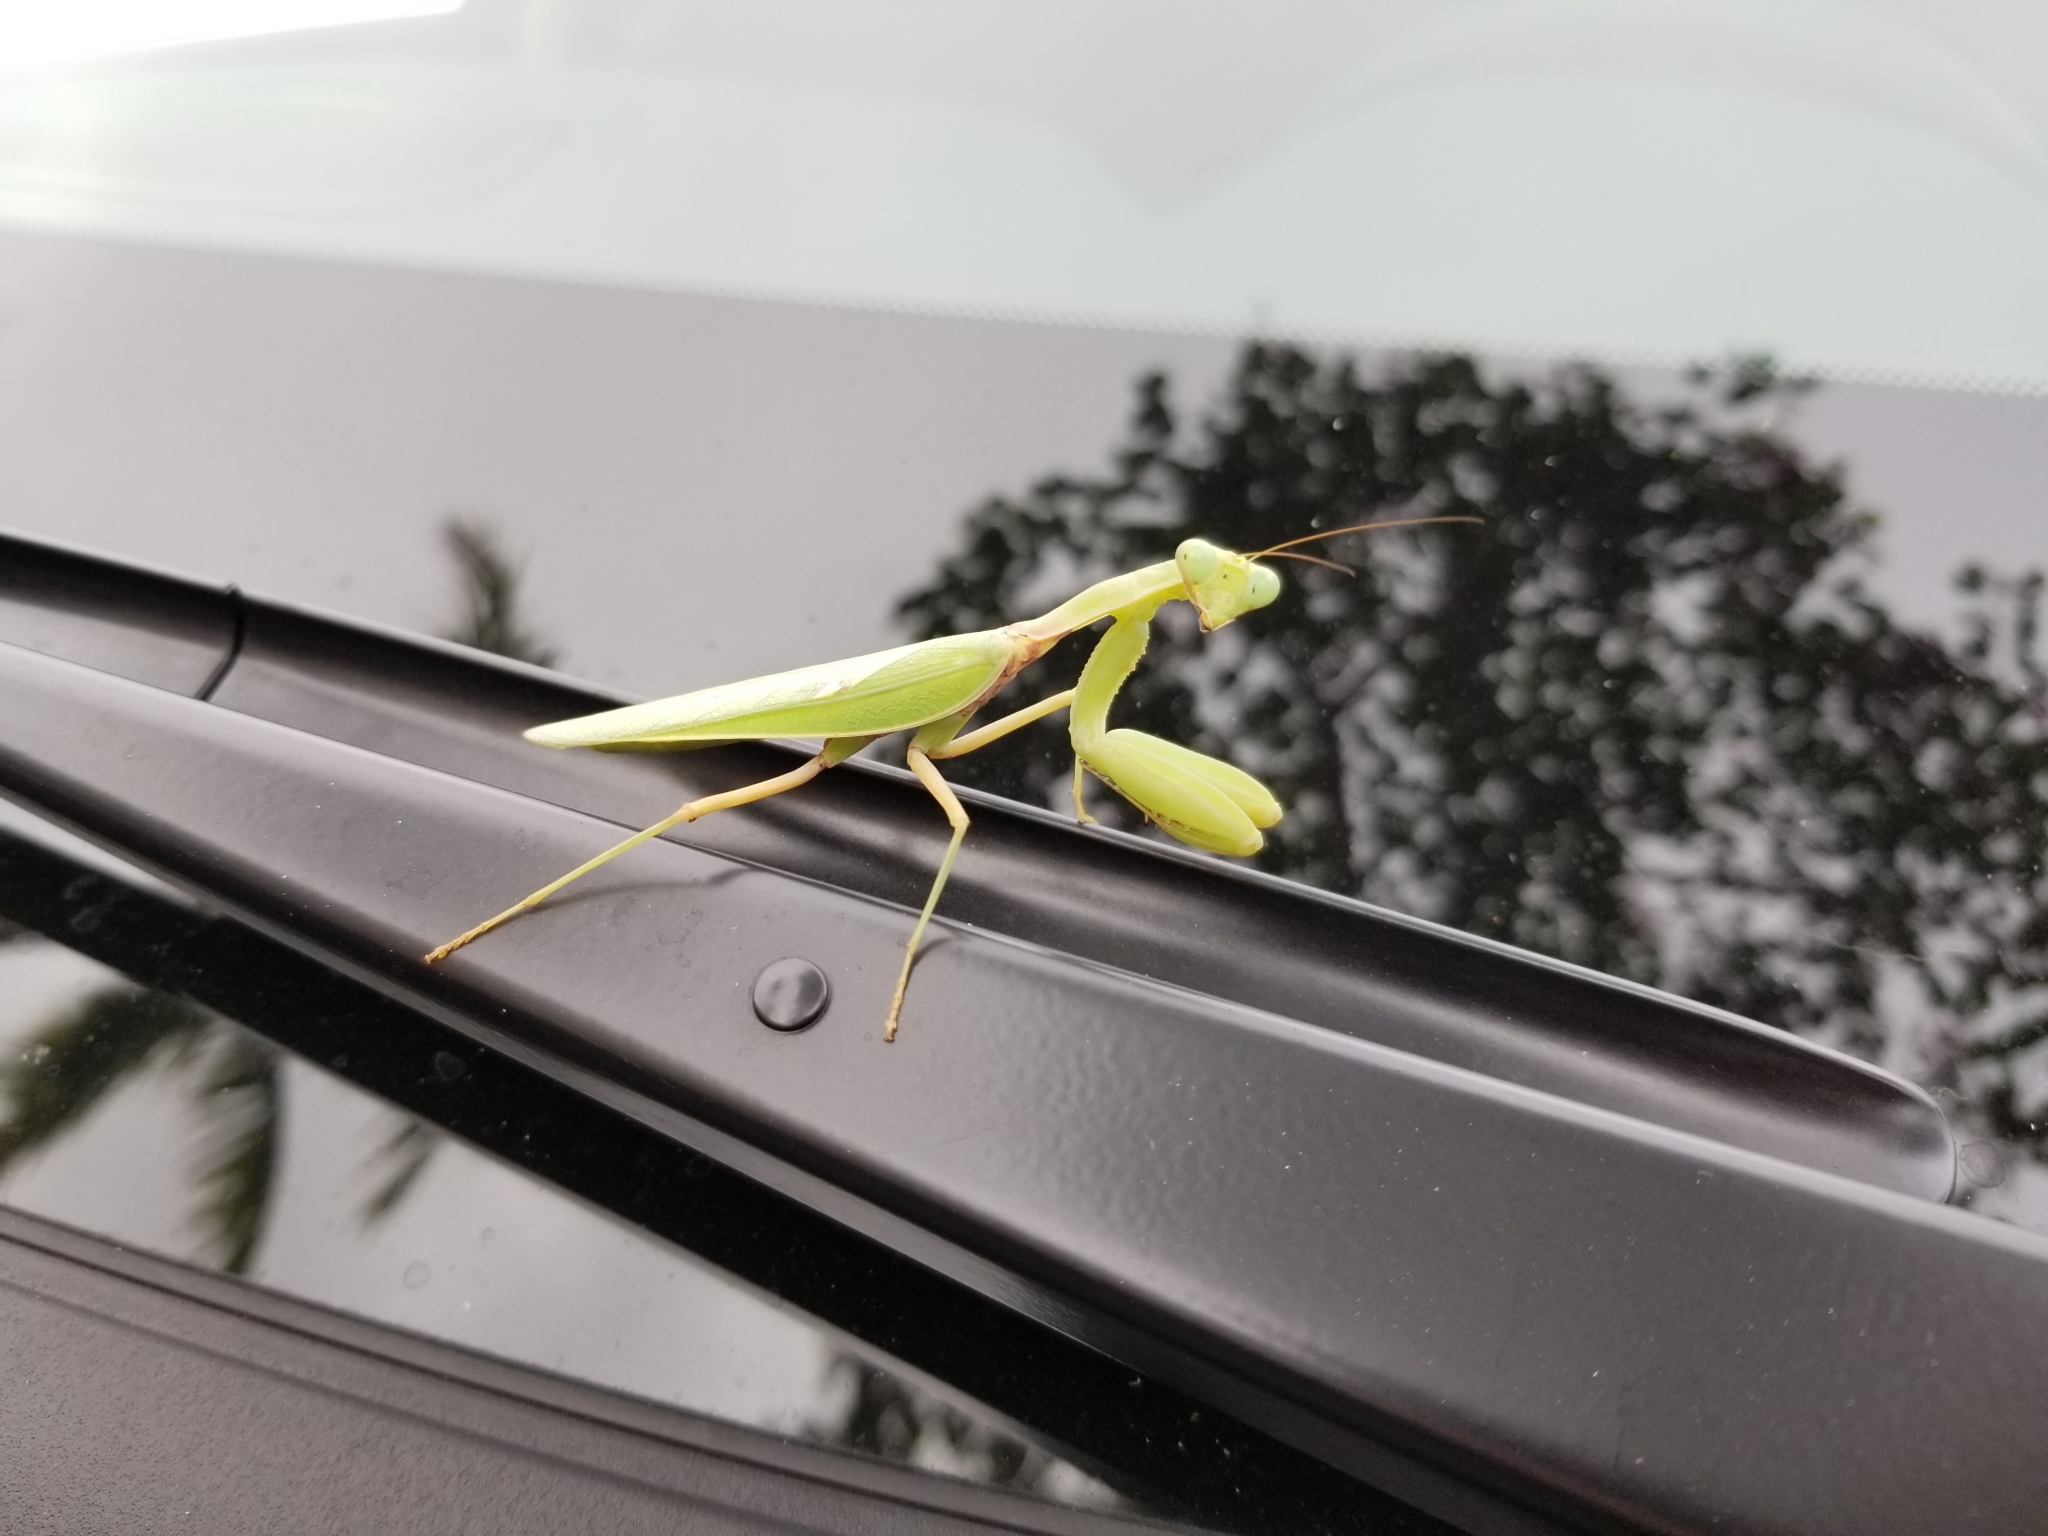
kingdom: Animalia
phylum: Arthropoda
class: Insecta
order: Mantodea
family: Mantidae
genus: Hierodula
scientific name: Hierodula patellifera
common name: Asian mantis
